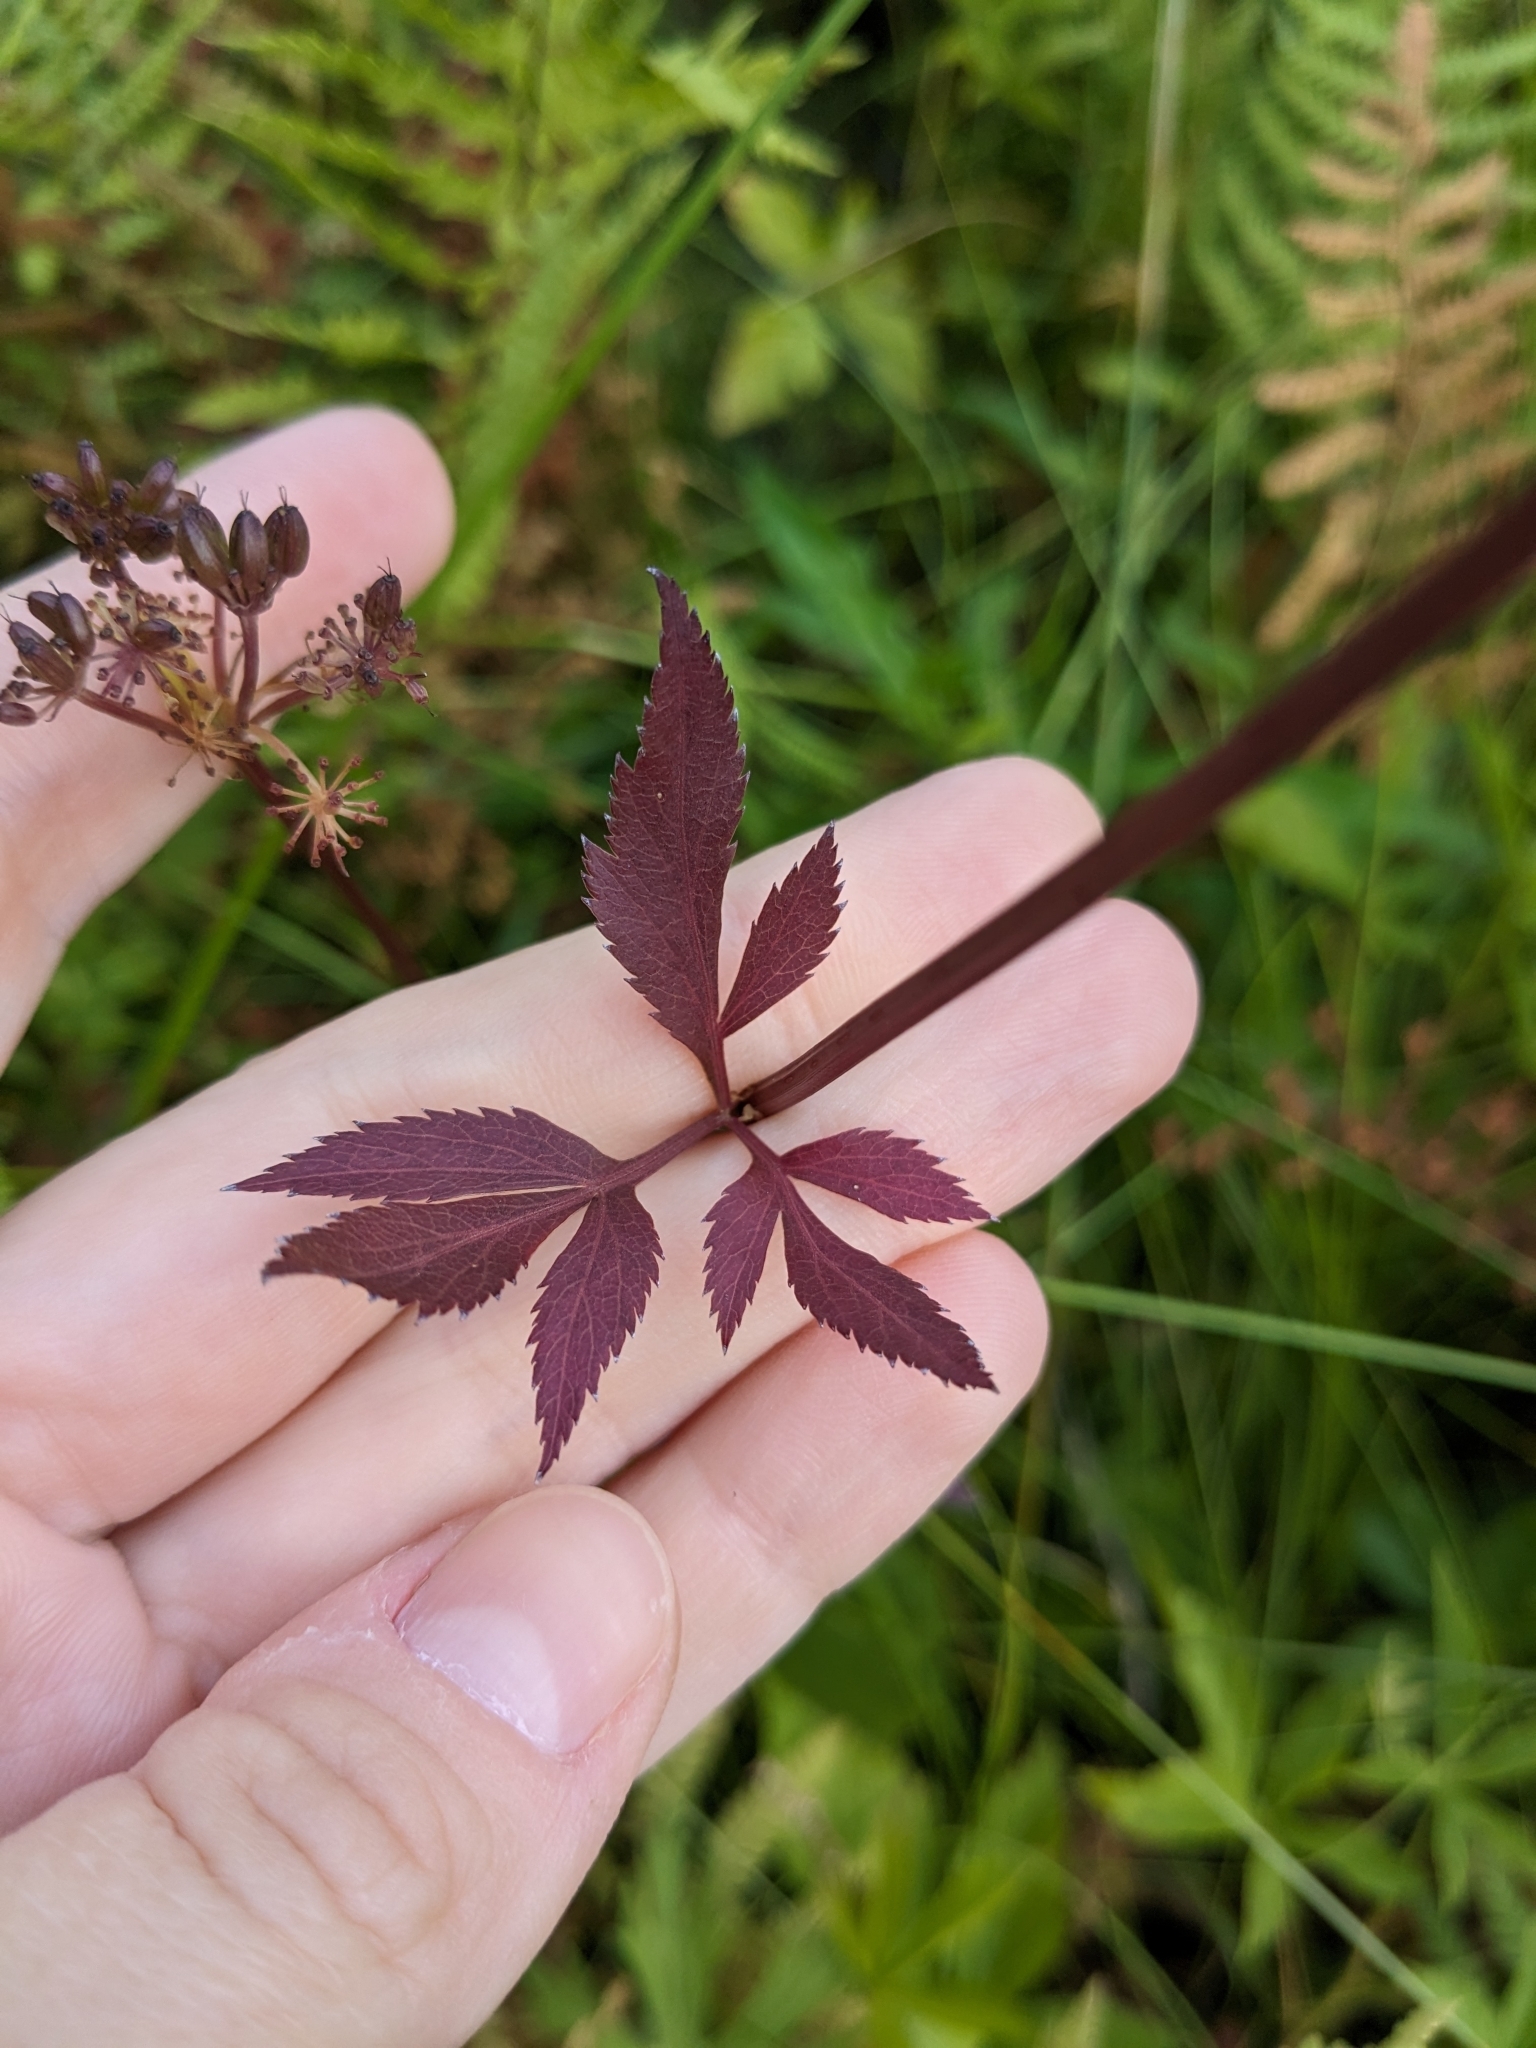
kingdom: Plantae
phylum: Tracheophyta
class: Magnoliopsida
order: Apiales
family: Apiaceae
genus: Zizia
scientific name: Zizia aurea
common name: Golden alexanders
